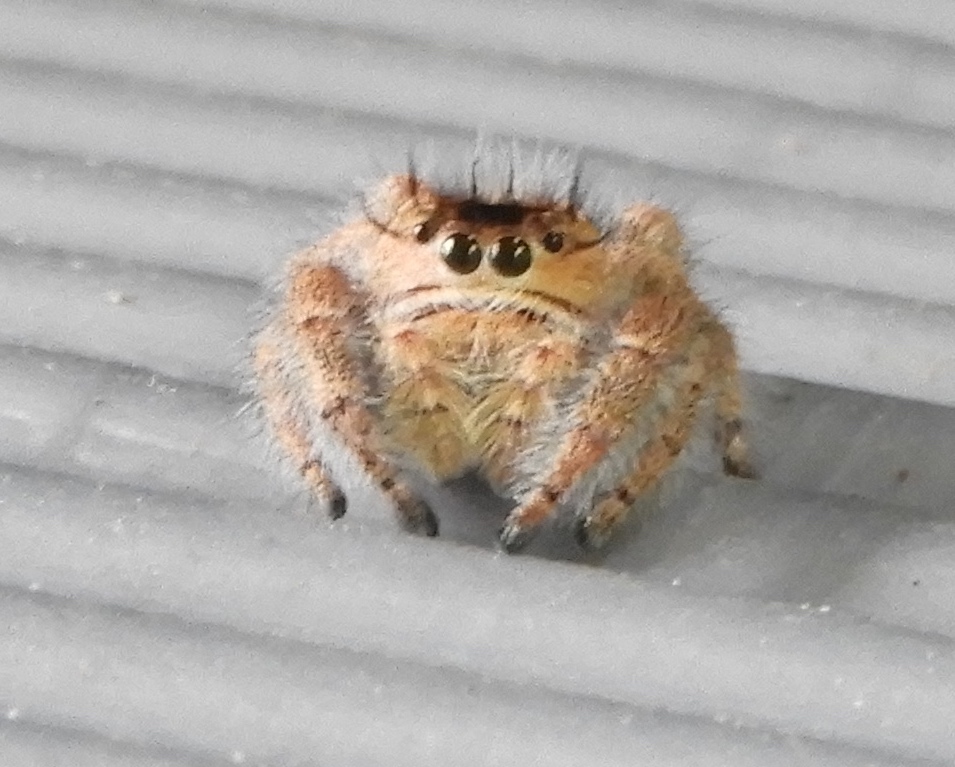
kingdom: Animalia
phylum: Arthropoda
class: Arachnida
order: Araneae
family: Salticidae
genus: Phidippus
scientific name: Phidippus maddisoni
